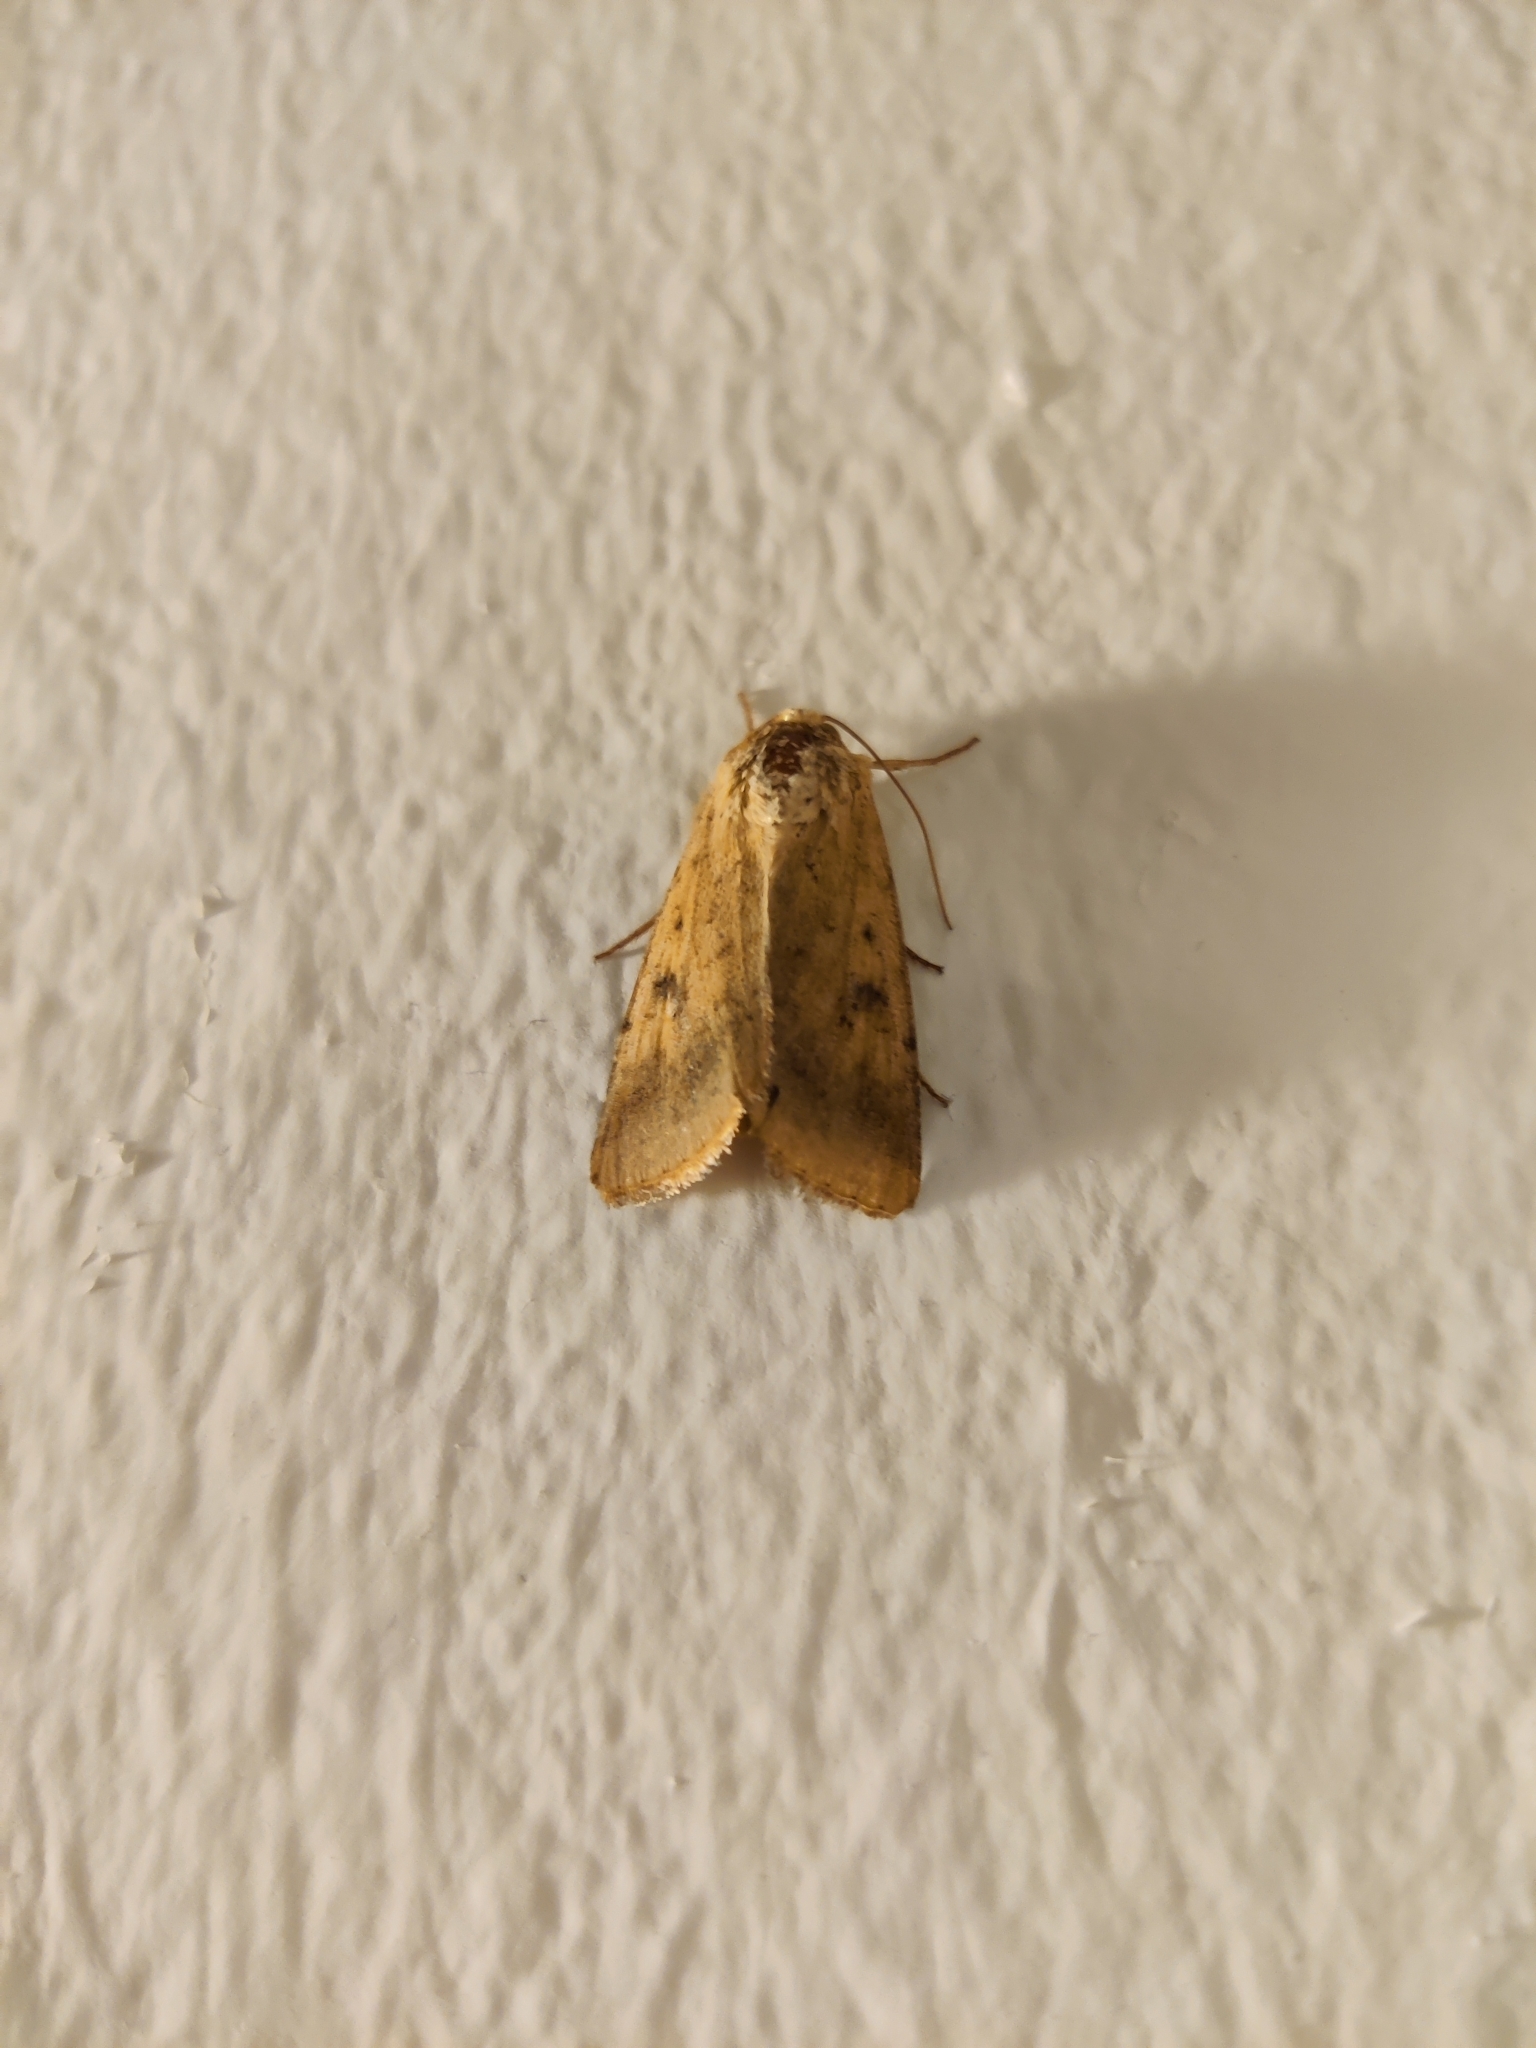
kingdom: Animalia
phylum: Arthropoda
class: Insecta
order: Lepidoptera
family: Noctuidae
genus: Helicoverpa
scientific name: Helicoverpa armigera
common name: Cotton bollworm
